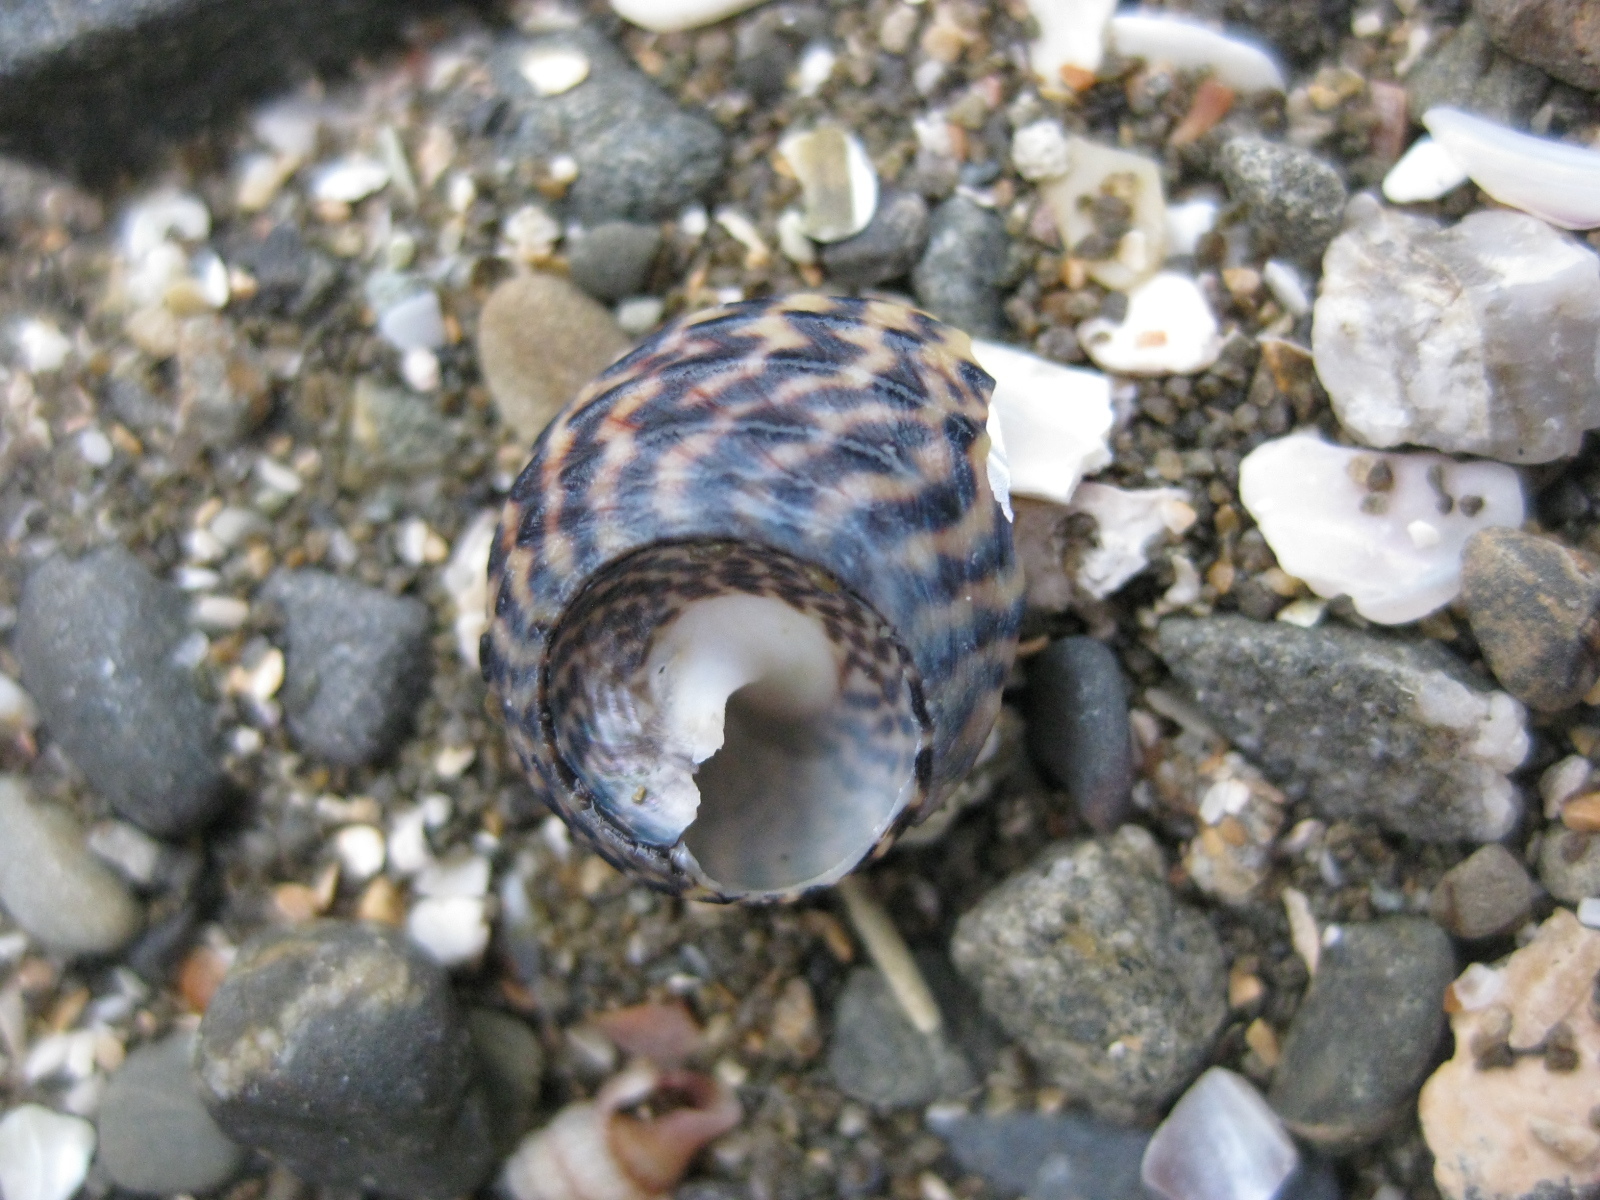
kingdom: Animalia
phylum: Mollusca
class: Gastropoda
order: Trochida
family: Trochidae
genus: Diloma
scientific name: Diloma subrostratum
